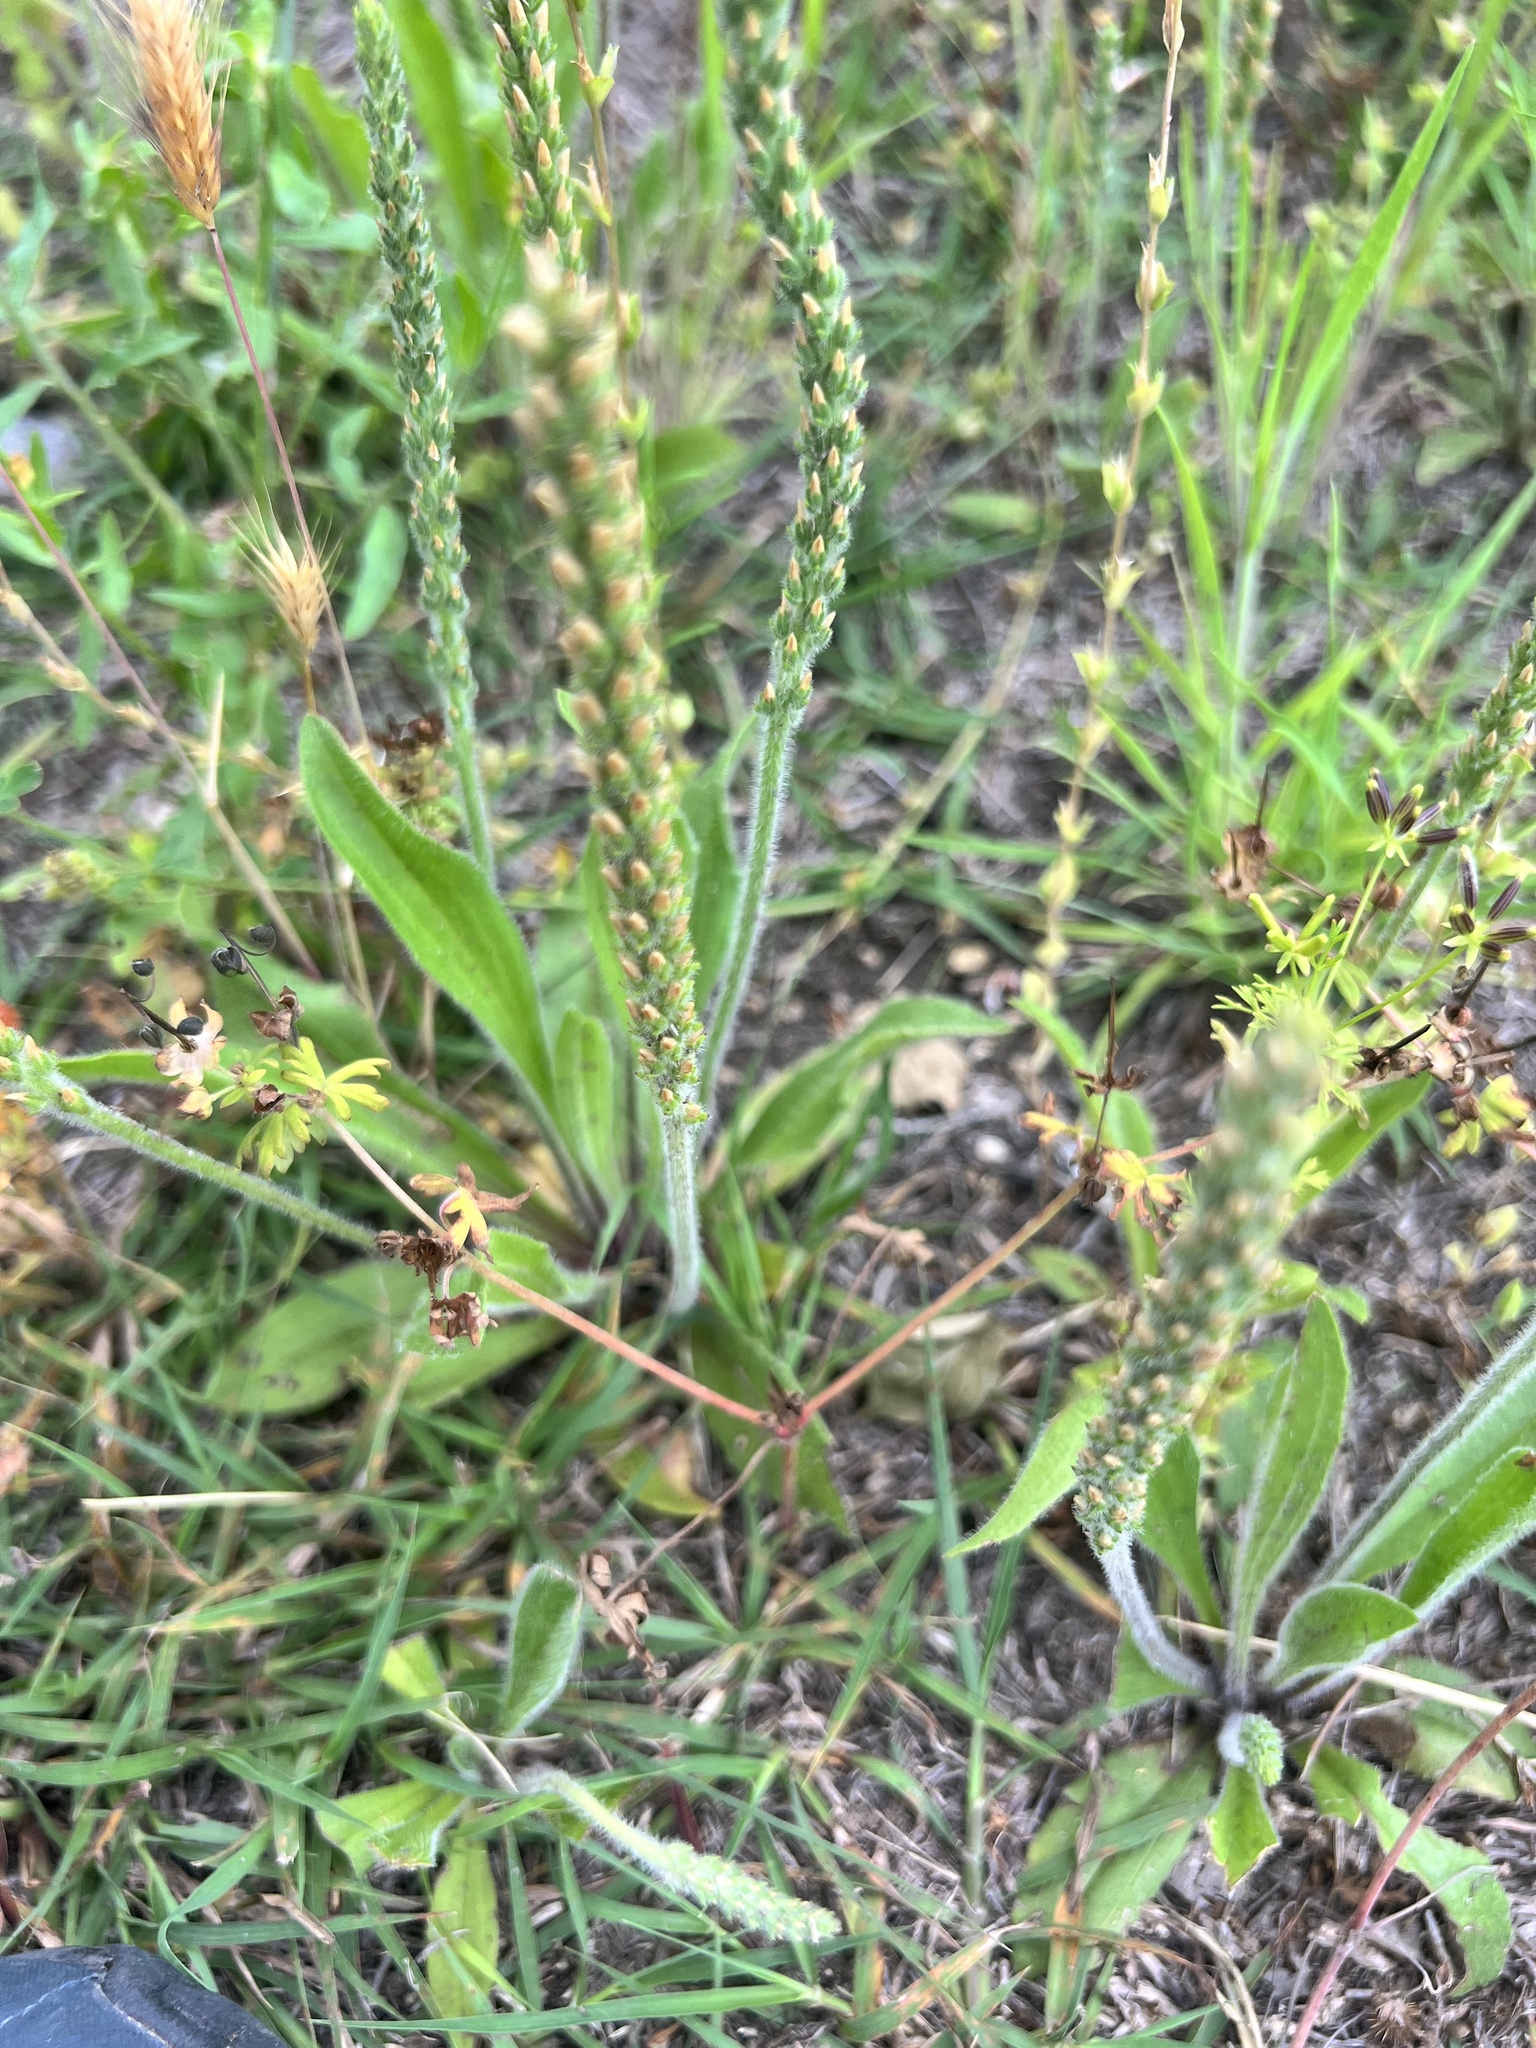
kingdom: Plantae
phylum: Tracheophyta
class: Magnoliopsida
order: Lamiales
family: Plantaginaceae
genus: Plantago
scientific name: Plantago rhodosperma
